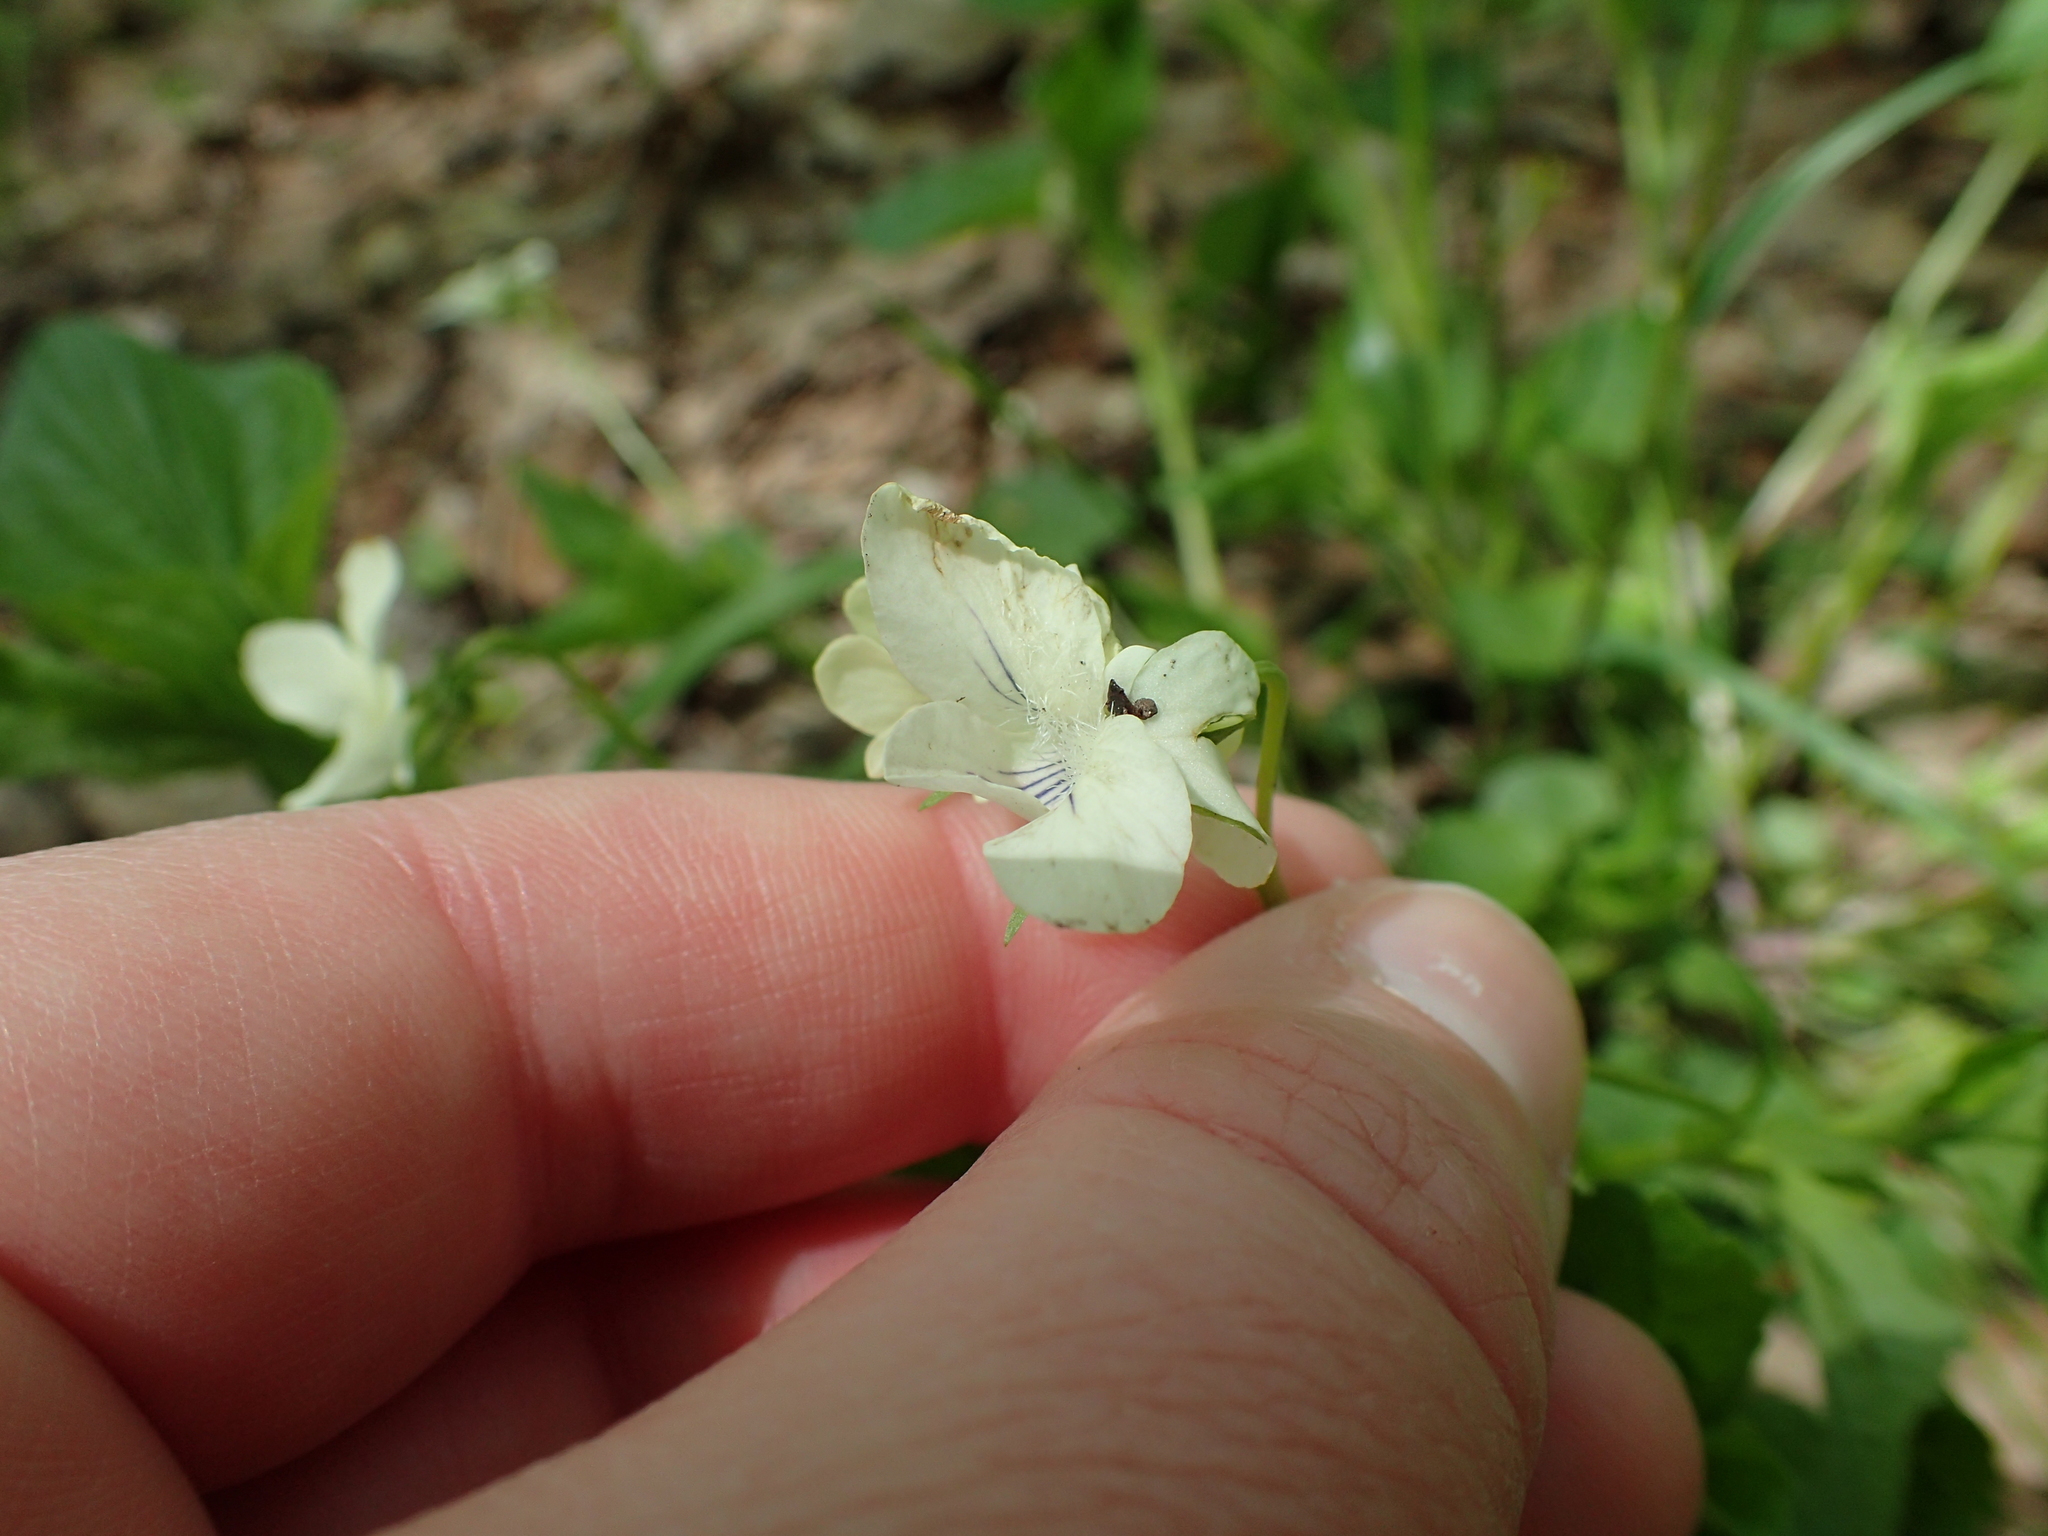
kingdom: Plantae
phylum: Tracheophyta
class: Magnoliopsida
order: Malpighiales
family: Violaceae
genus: Viola
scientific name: Viola striata
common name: Cream violet
